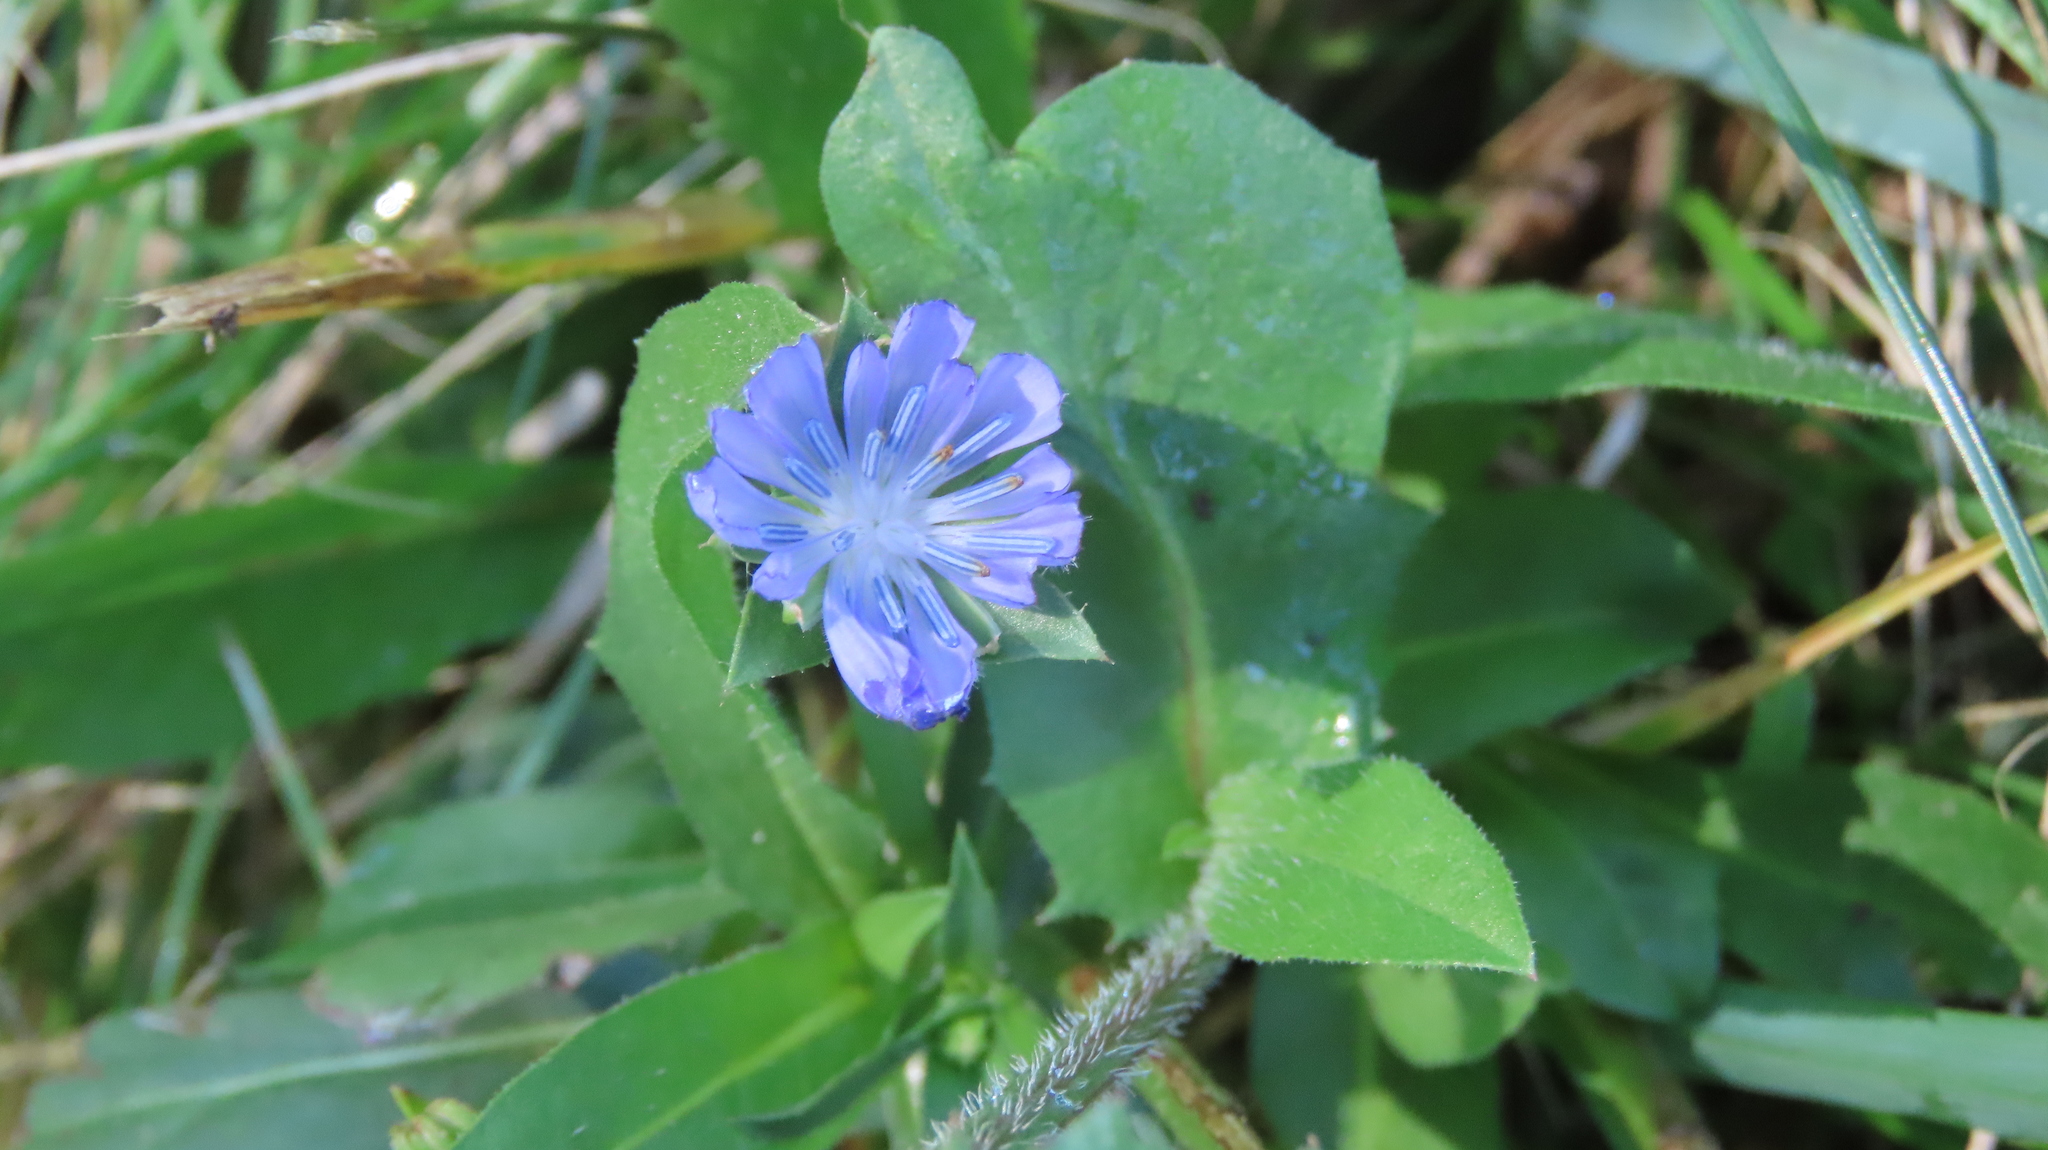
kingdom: Plantae
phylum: Tracheophyta
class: Magnoliopsida
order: Asterales
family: Asteraceae
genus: Cichorium
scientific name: Cichorium intybus
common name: Chicory
